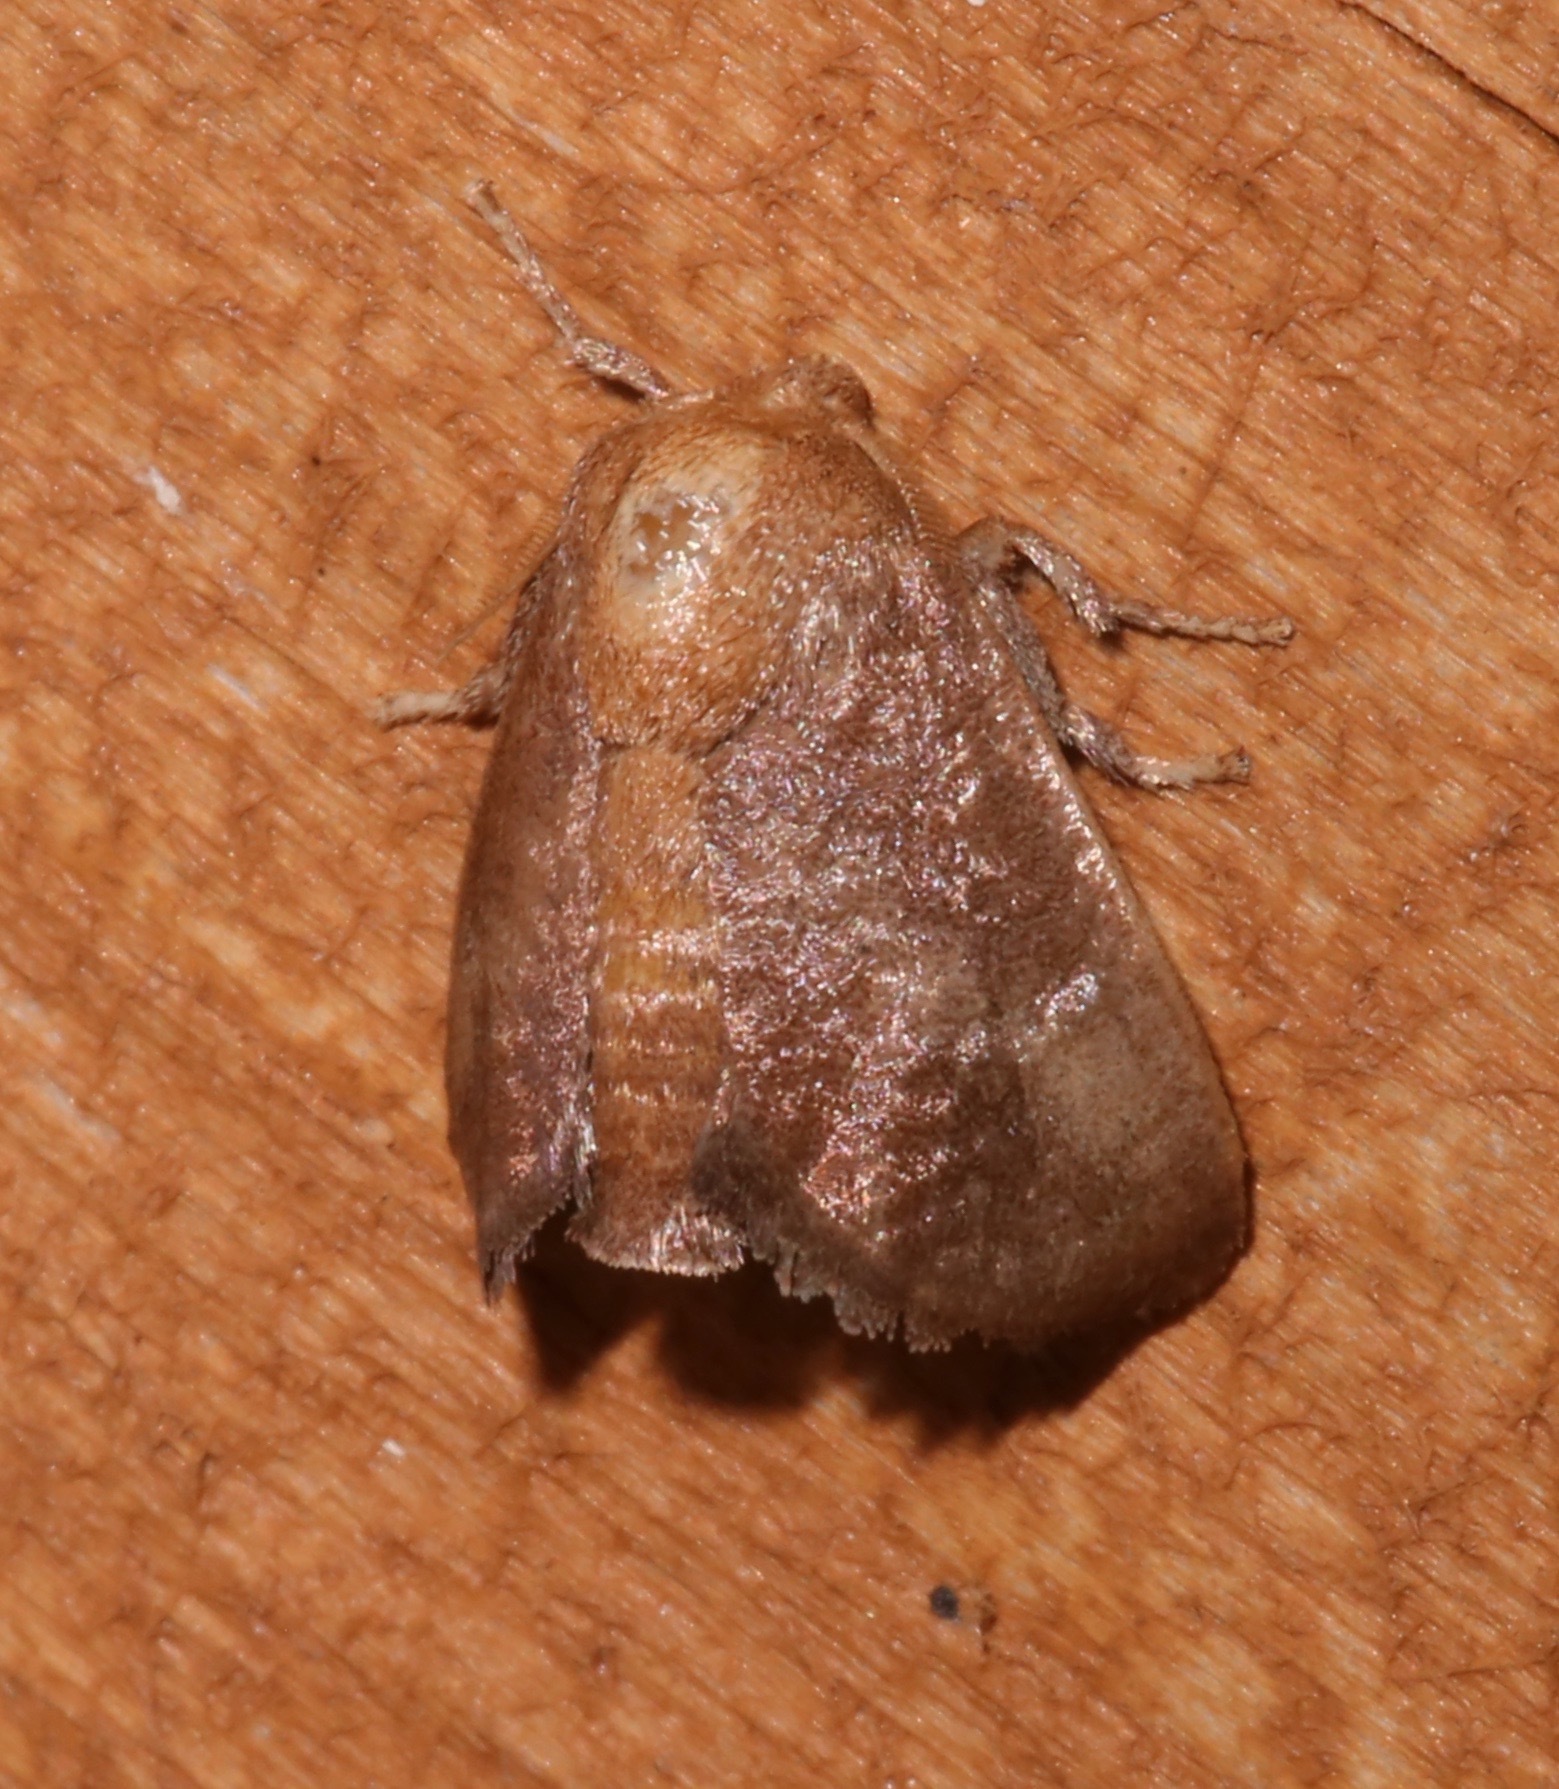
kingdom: Animalia
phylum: Arthropoda
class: Insecta
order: Lepidoptera
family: Limacodidae
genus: Isa
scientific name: Isa textula
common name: Crowned slug moth
